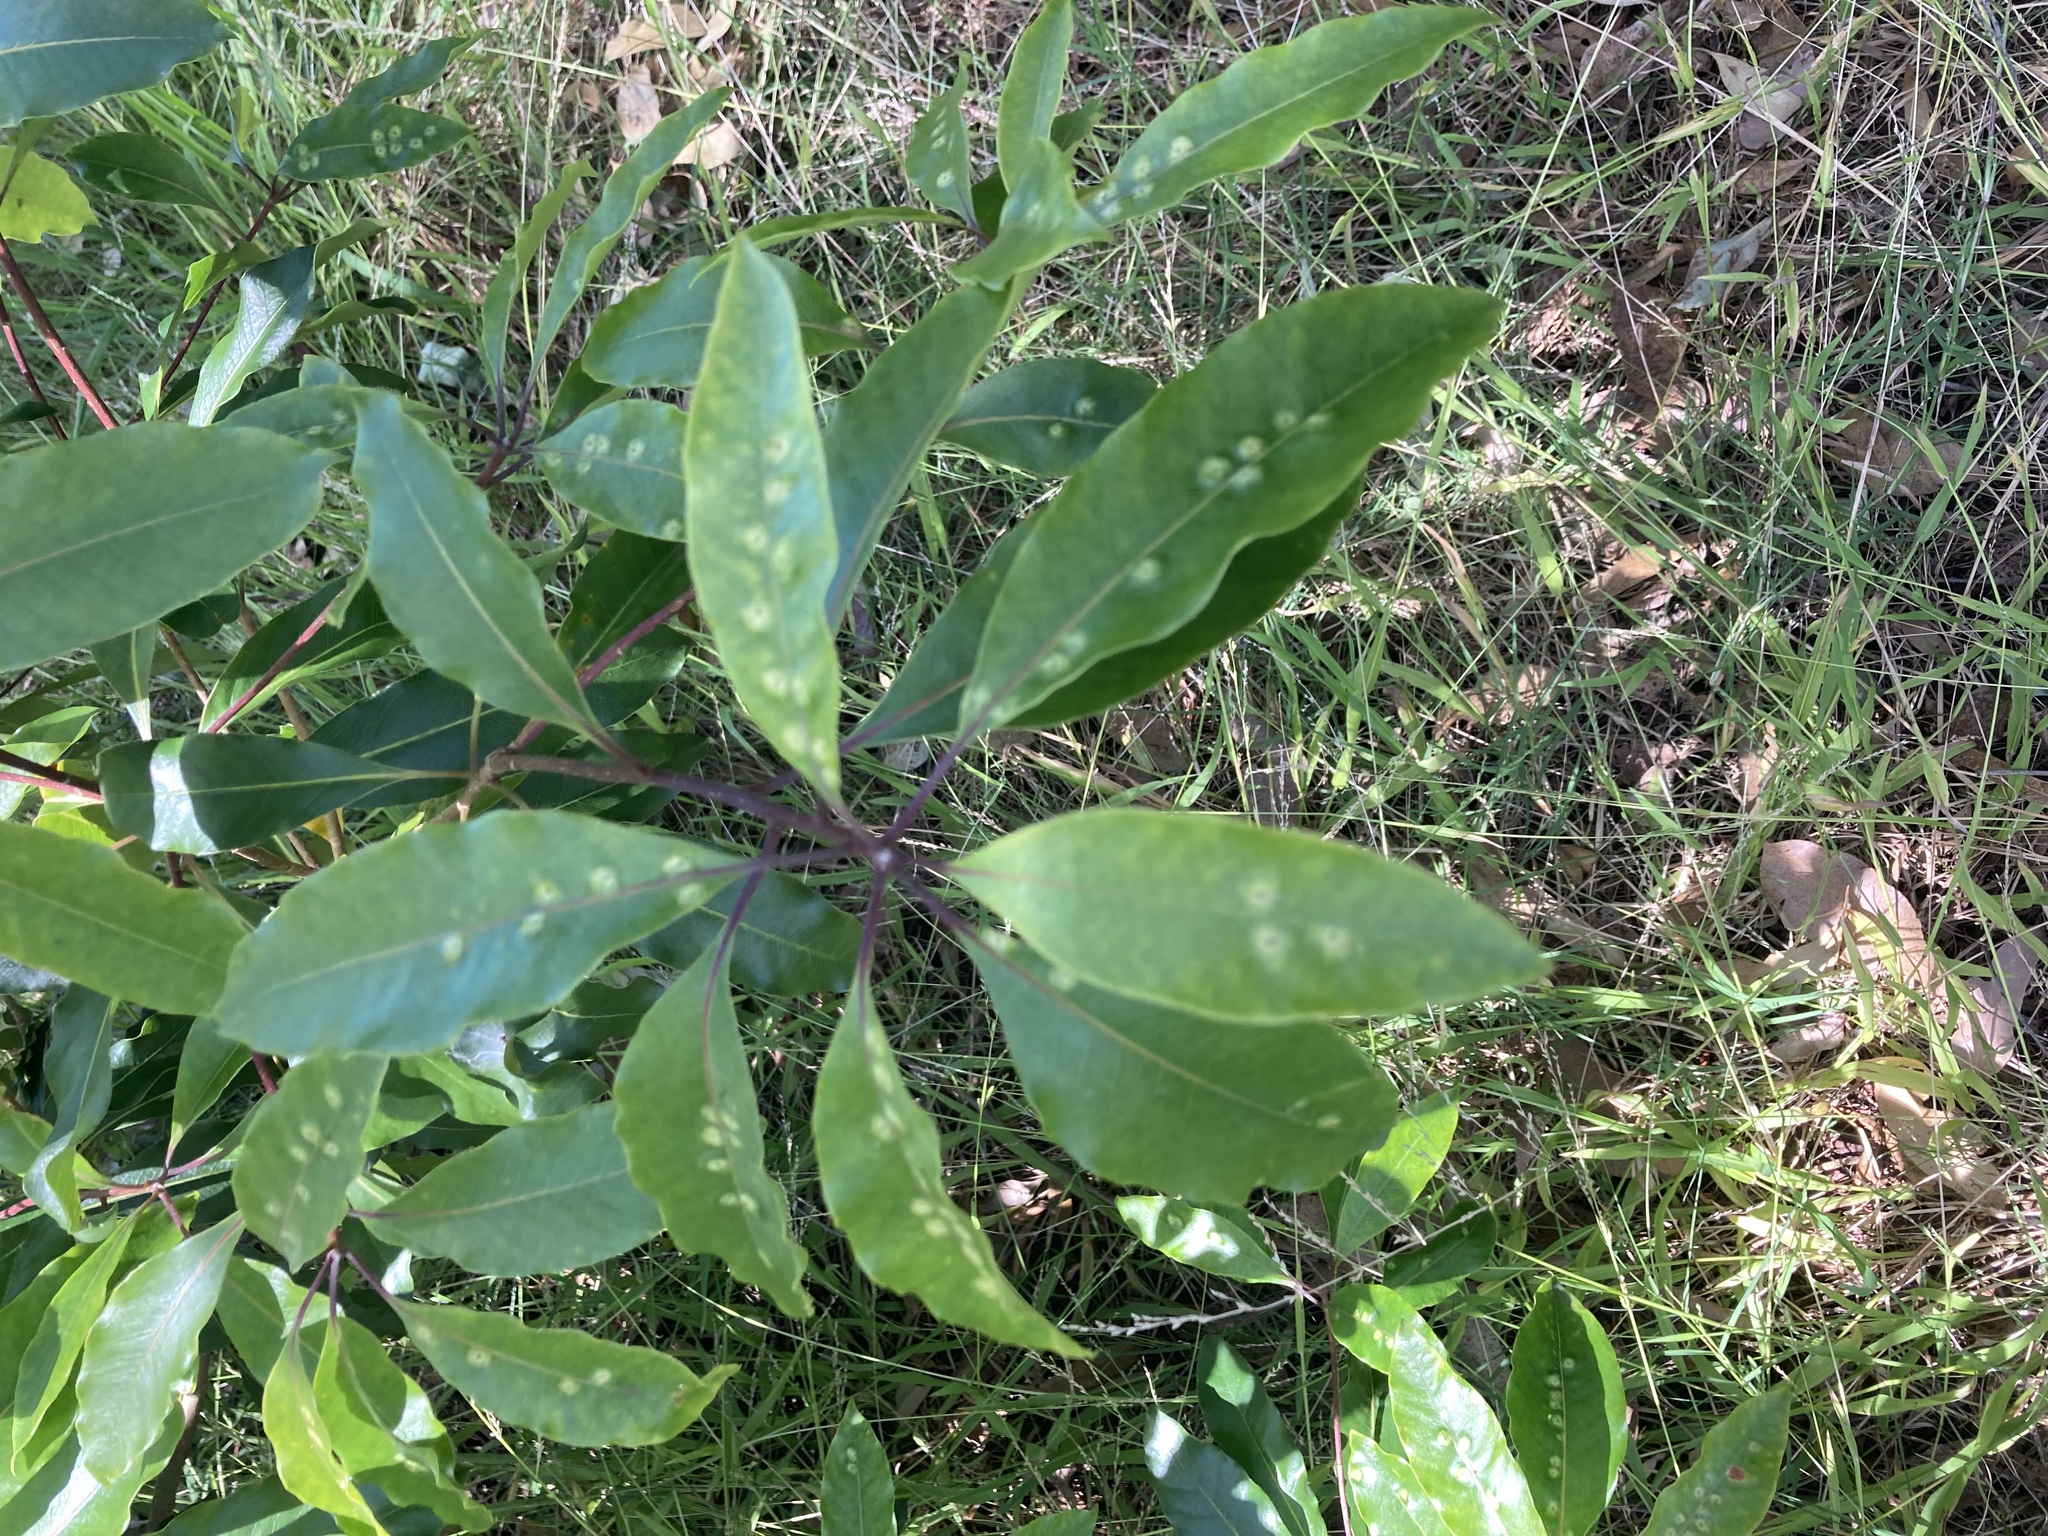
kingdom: Animalia
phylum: Arthropoda
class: Insecta
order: Diptera
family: Agromyzidae
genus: Phytoliriomyza
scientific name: Phytoliriomyza pittosporophylli
